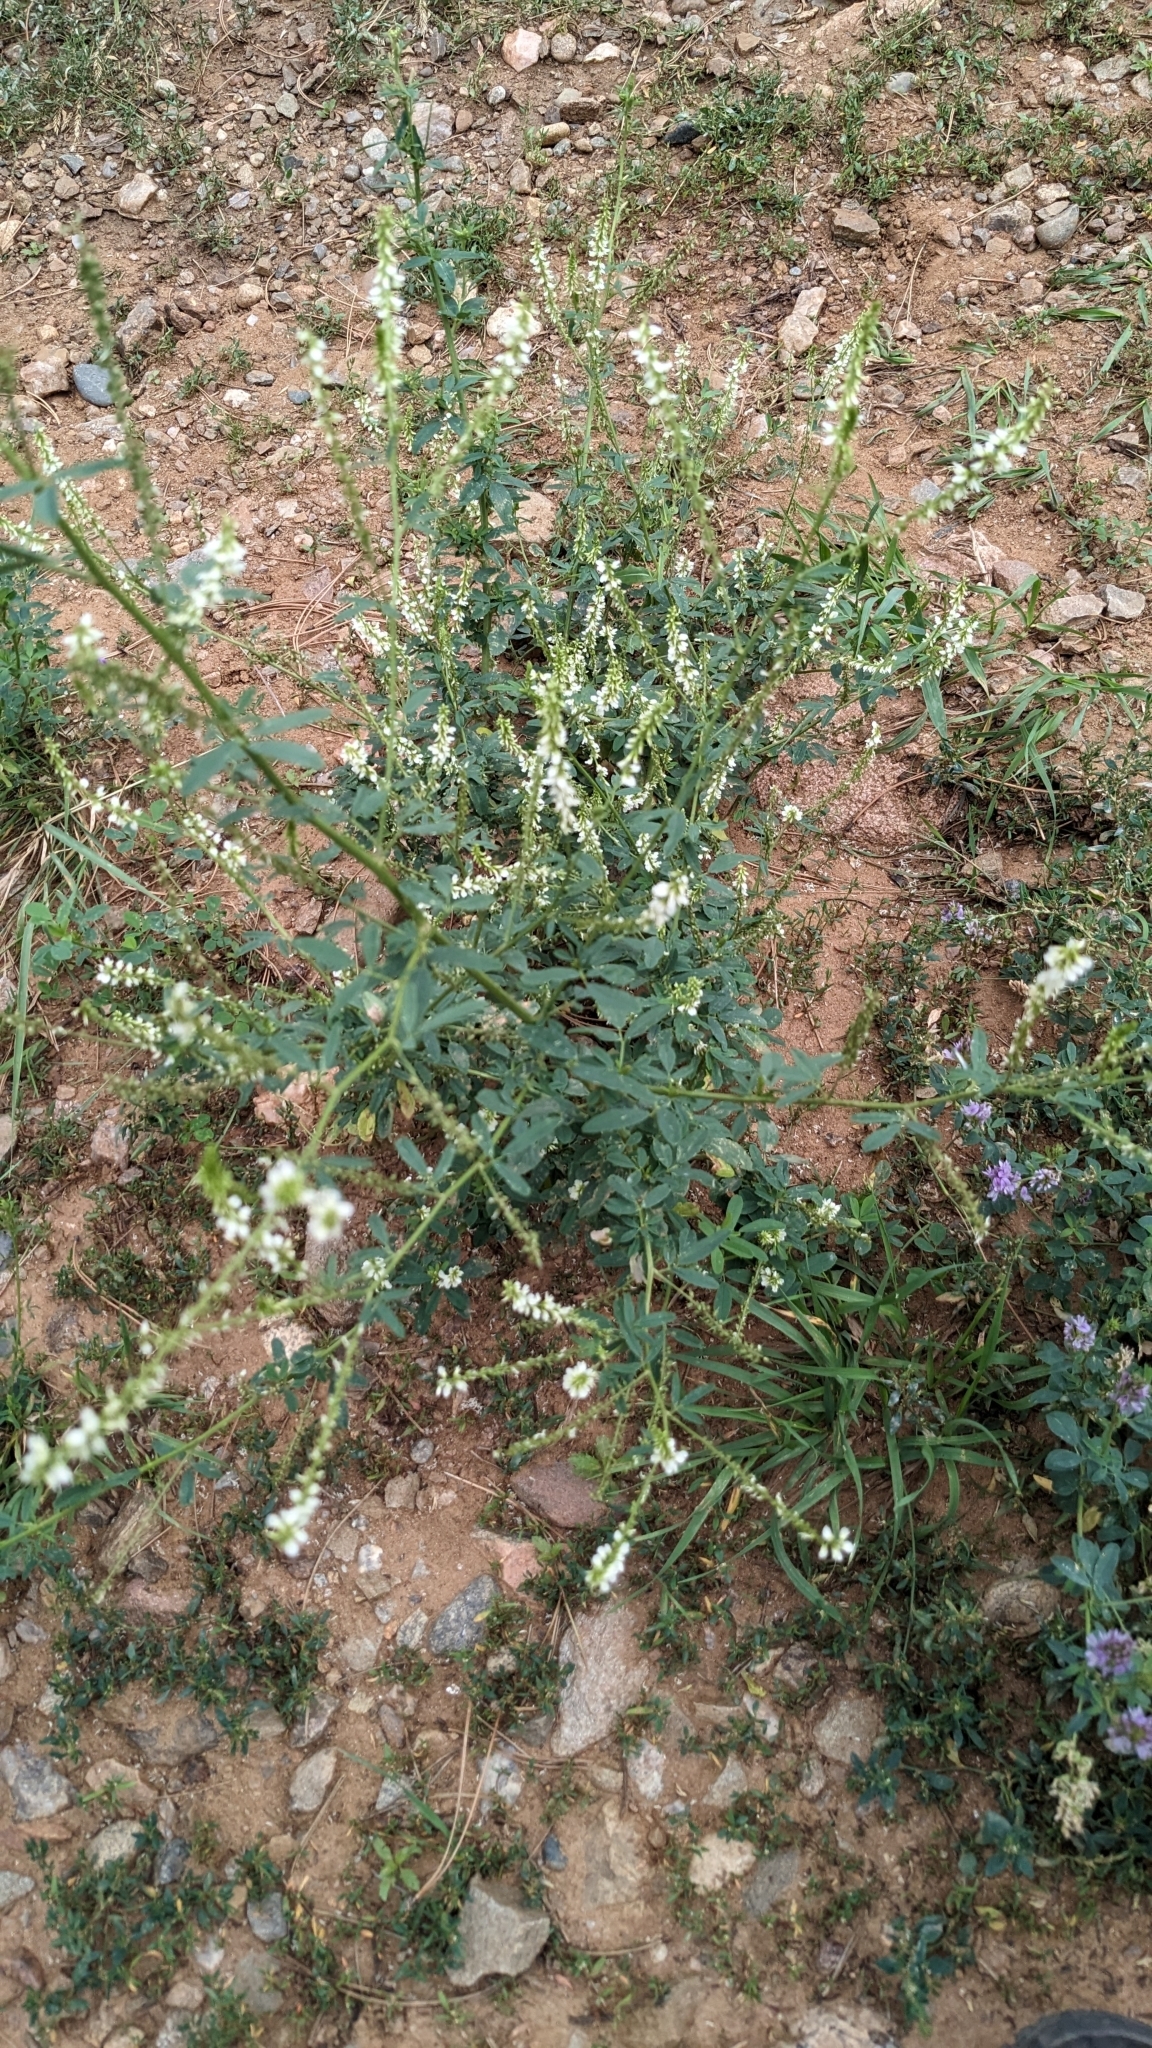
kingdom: Plantae
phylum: Tracheophyta
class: Magnoliopsida
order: Fabales
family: Fabaceae
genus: Melilotus
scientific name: Melilotus albus
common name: White melilot
